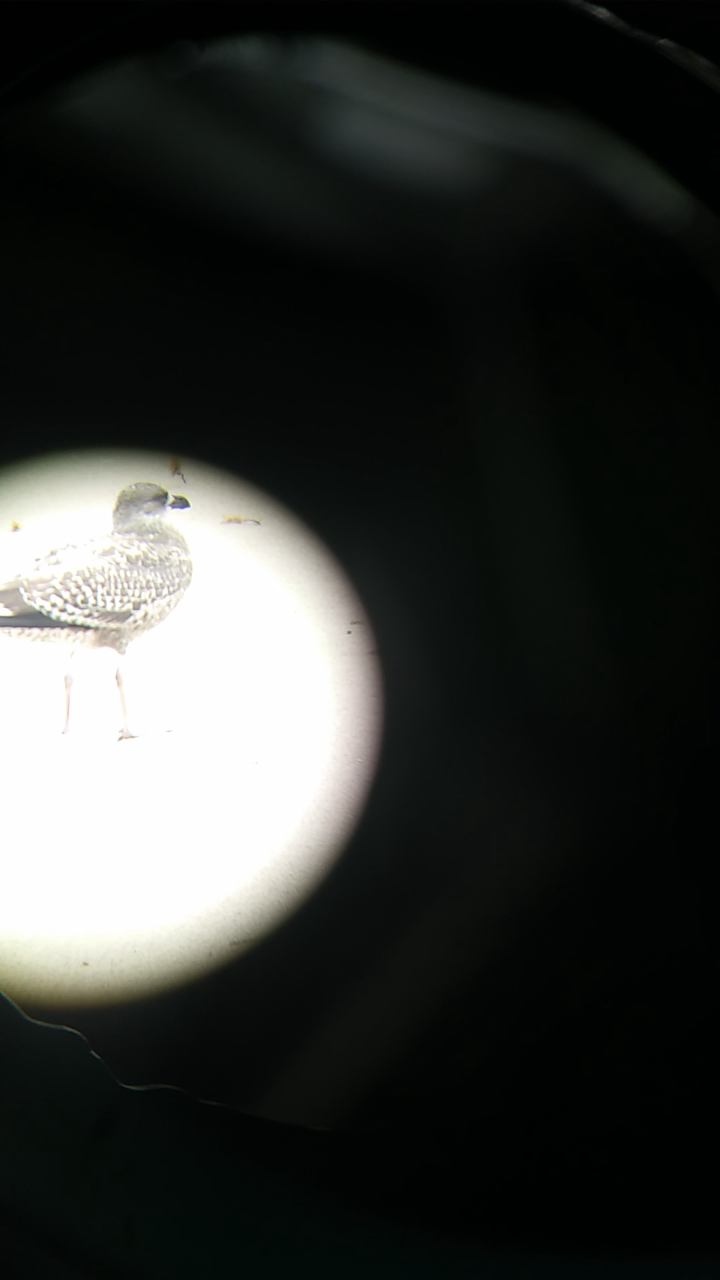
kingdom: Animalia
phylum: Chordata
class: Aves
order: Charadriiformes
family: Laridae
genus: Larus
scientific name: Larus fuscus
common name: Lesser black-backed gull
